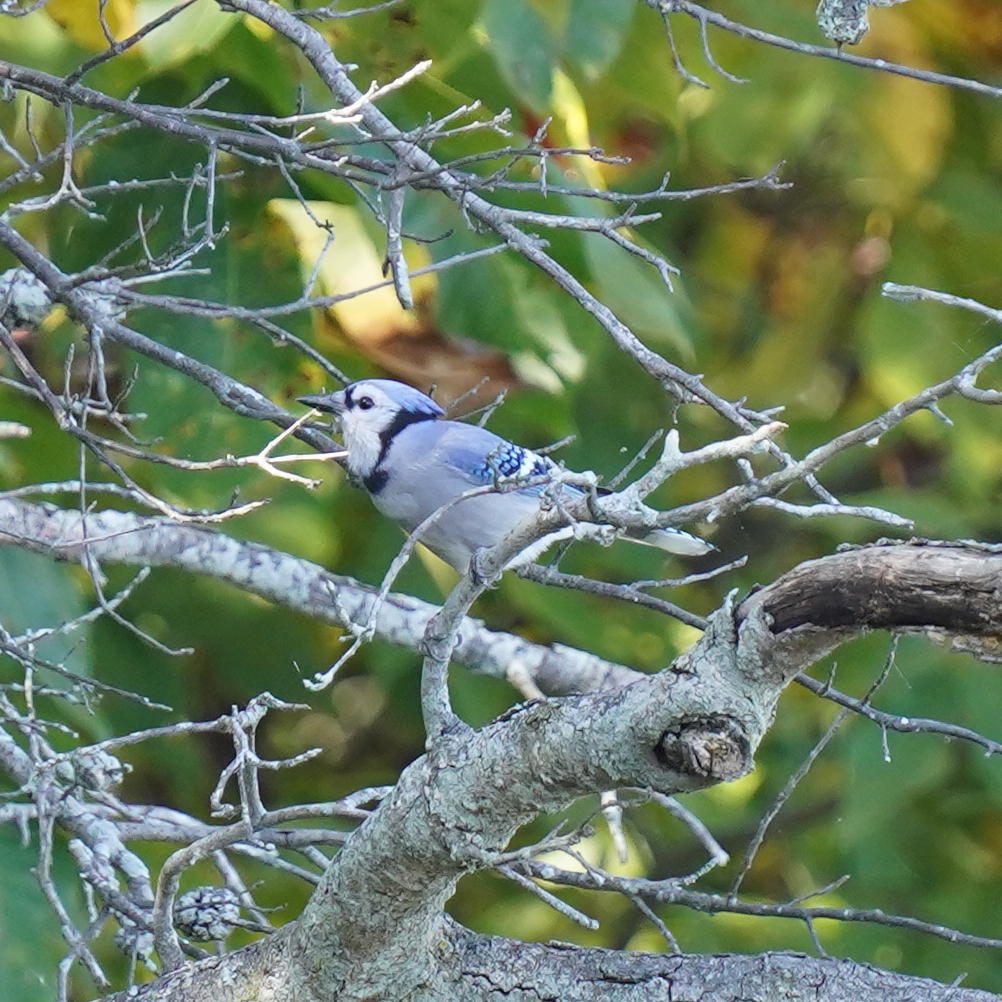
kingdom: Animalia
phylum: Chordata
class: Aves
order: Passeriformes
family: Corvidae
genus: Cyanocitta
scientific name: Cyanocitta cristata
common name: Blue jay
